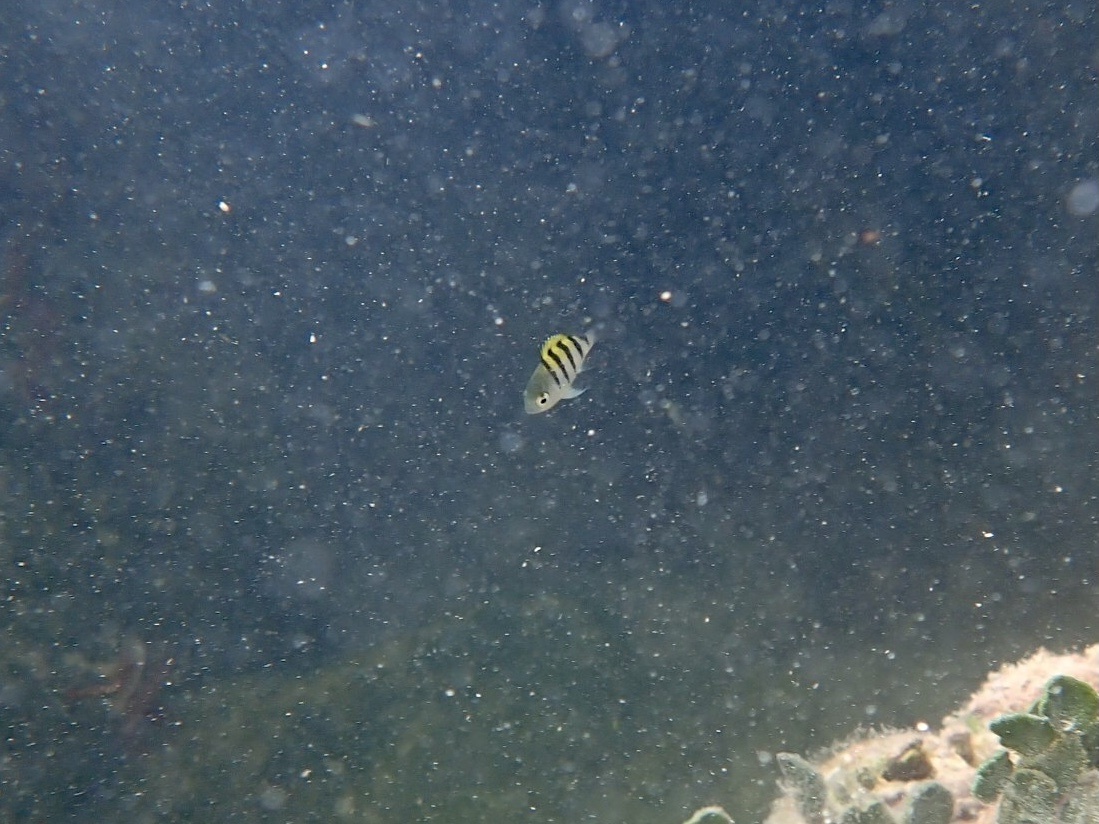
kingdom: Animalia
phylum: Chordata
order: Perciformes
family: Pomacentridae
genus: Abudefduf
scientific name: Abudefduf saxatilis
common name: Sergeant major
